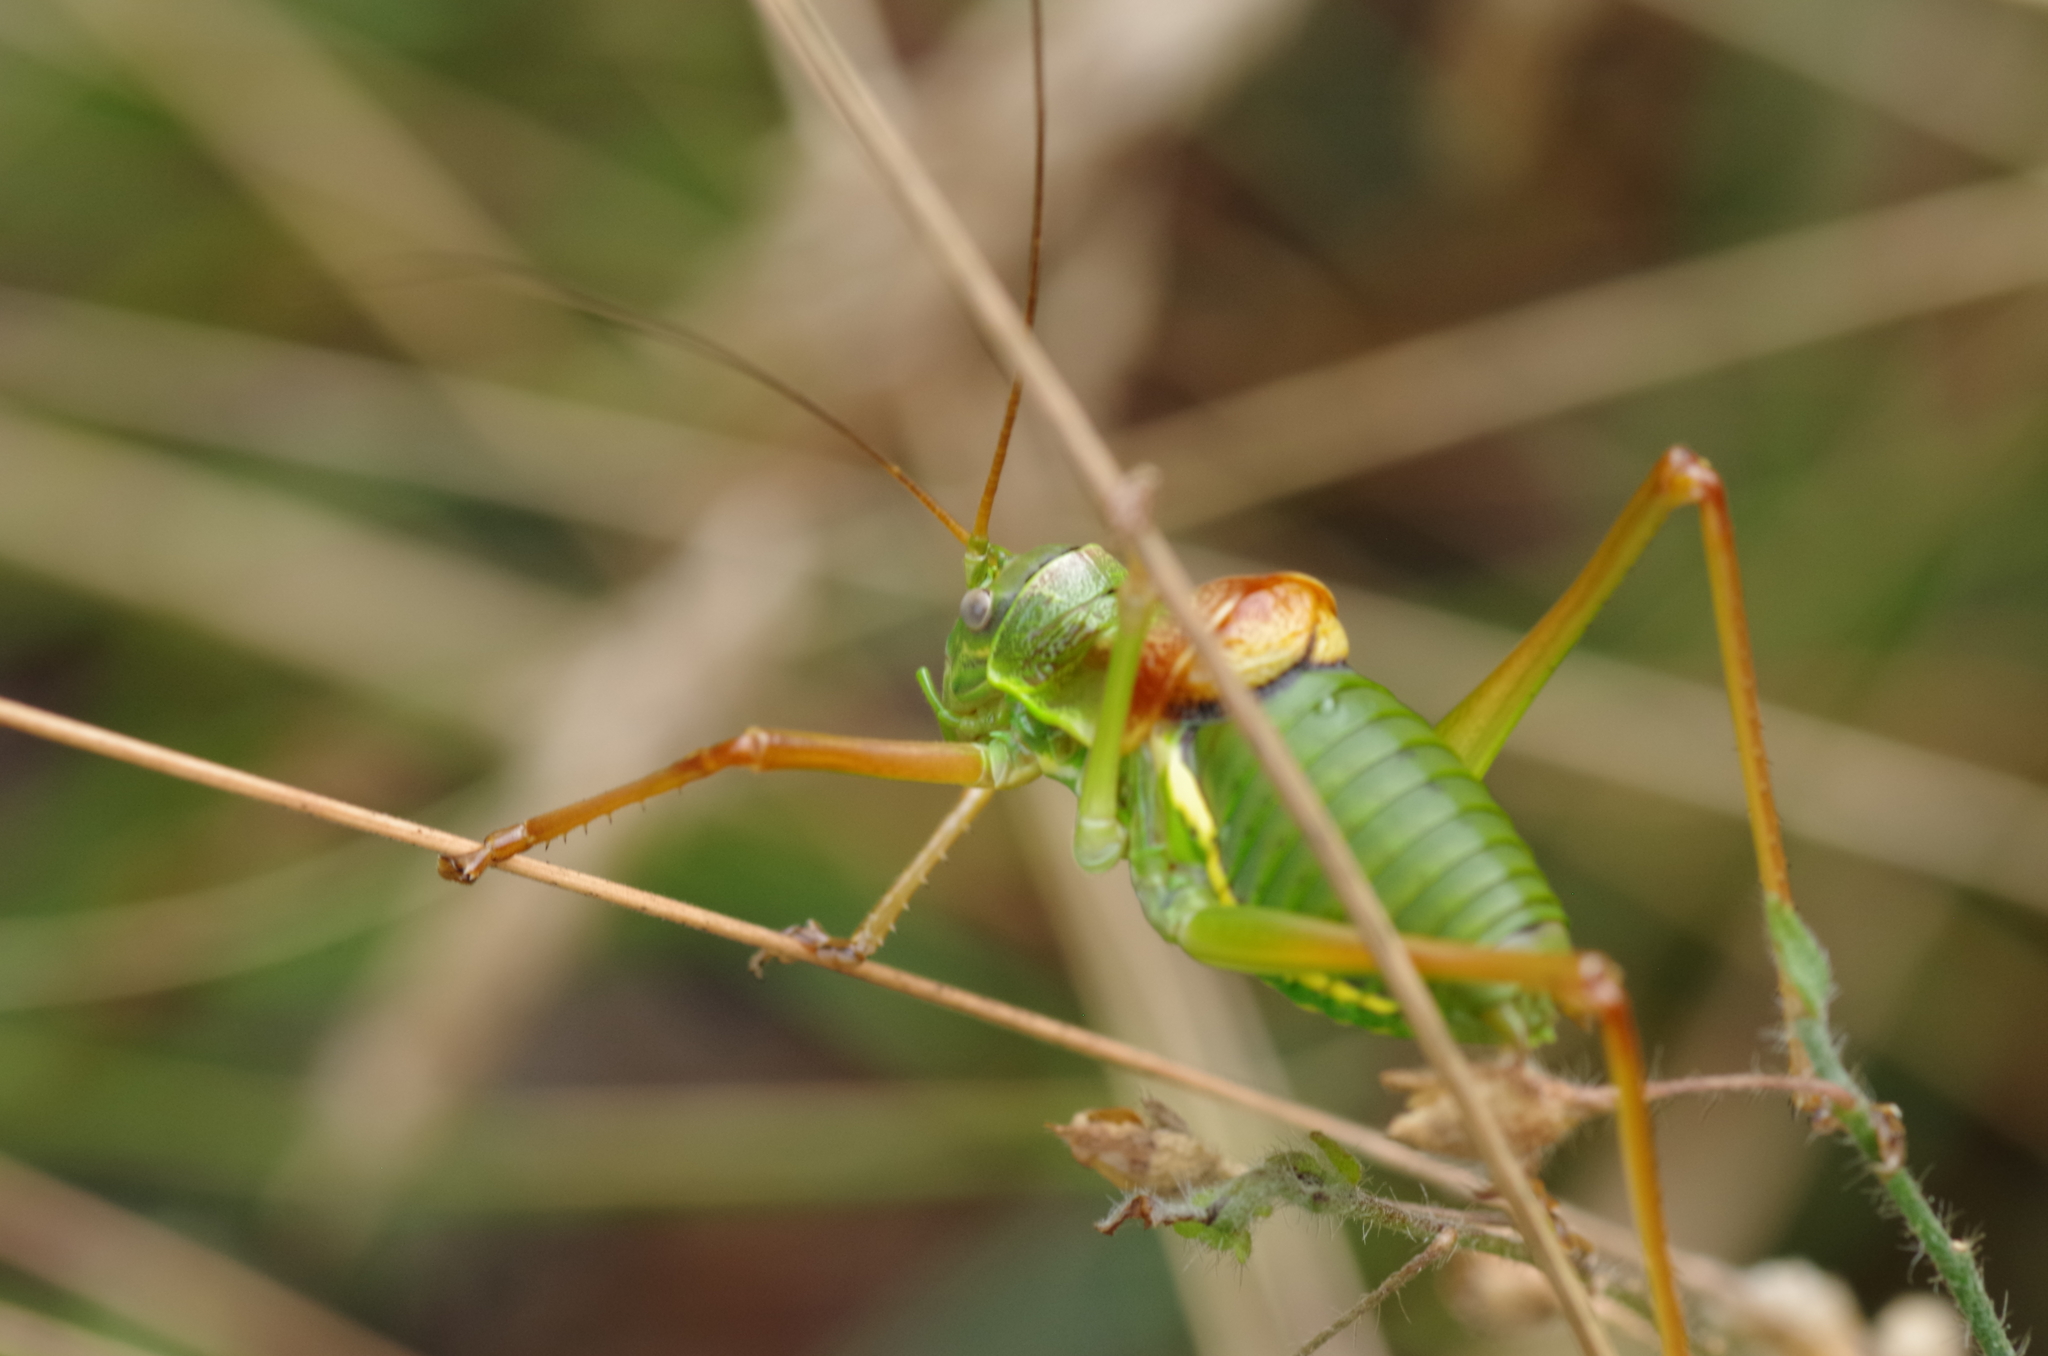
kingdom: Animalia
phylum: Arthropoda
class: Insecta
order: Orthoptera
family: Tettigoniidae
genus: Ephippiger
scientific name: Ephippiger diurnus
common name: Western saddle bush-cricket
